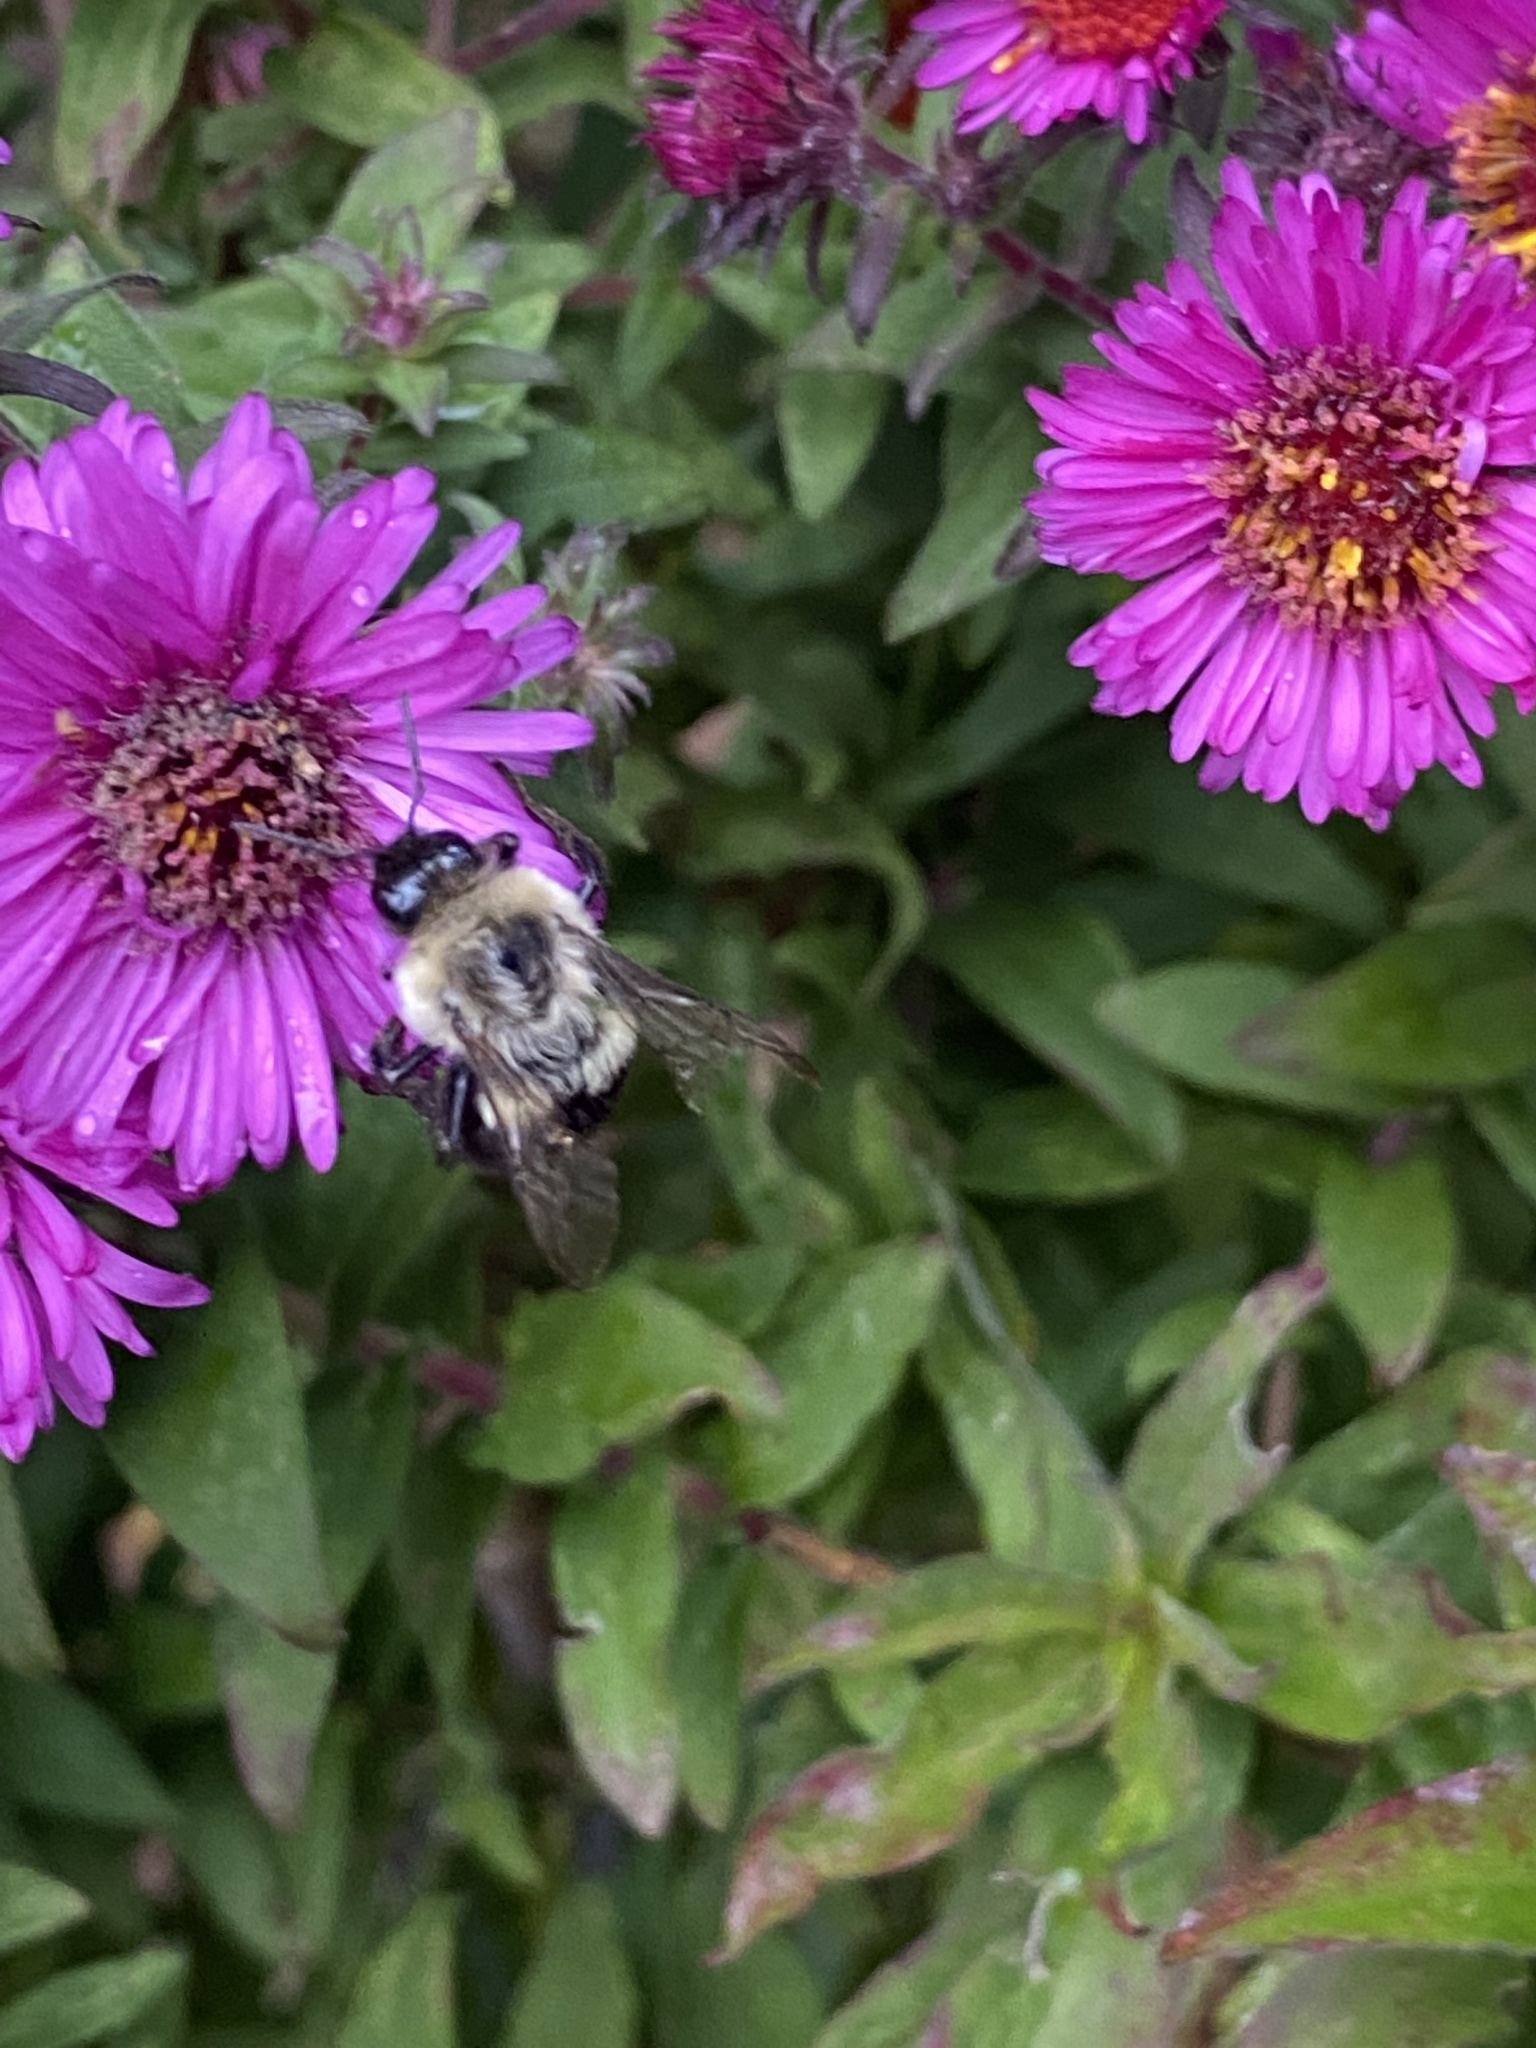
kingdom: Animalia
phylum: Arthropoda
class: Insecta
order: Hymenoptera
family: Apidae
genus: Bombus
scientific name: Bombus impatiens
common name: Common eastern bumble bee
